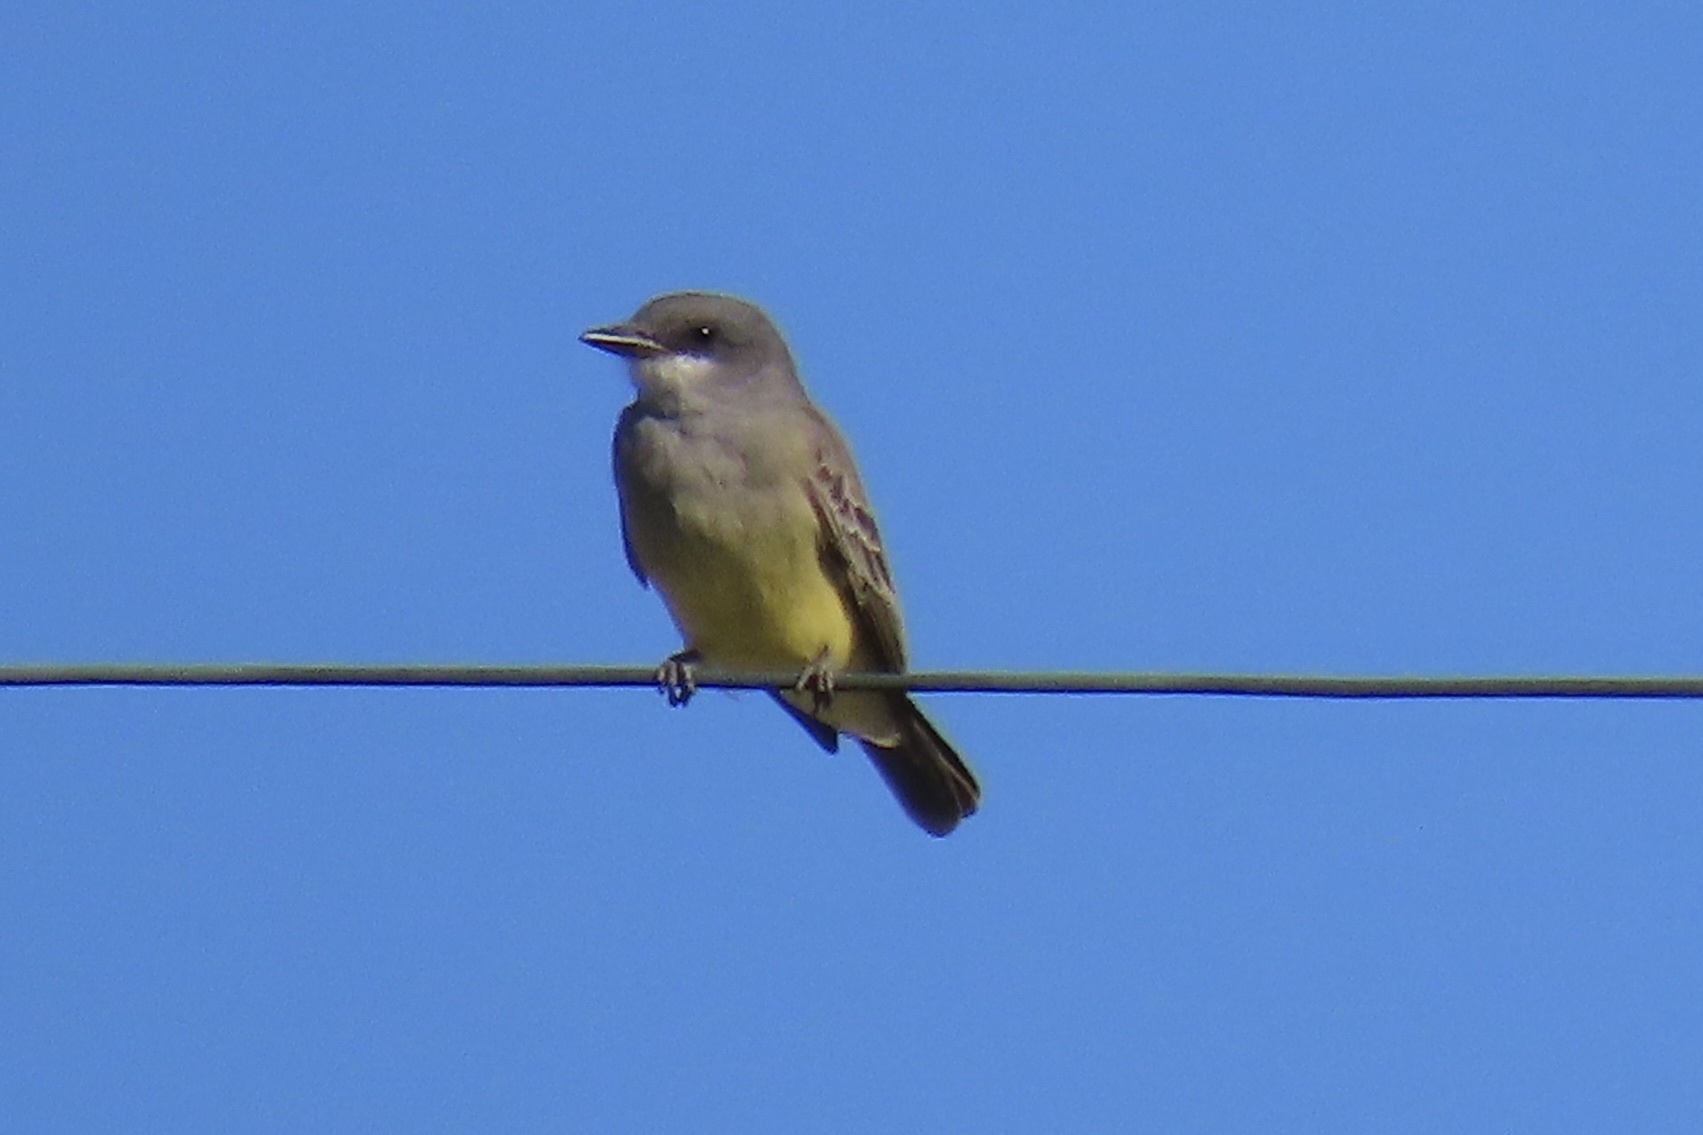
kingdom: Animalia
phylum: Chordata
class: Aves
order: Passeriformes
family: Tyrannidae
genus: Tyrannus
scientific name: Tyrannus vociferans
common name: Cassin's kingbird
